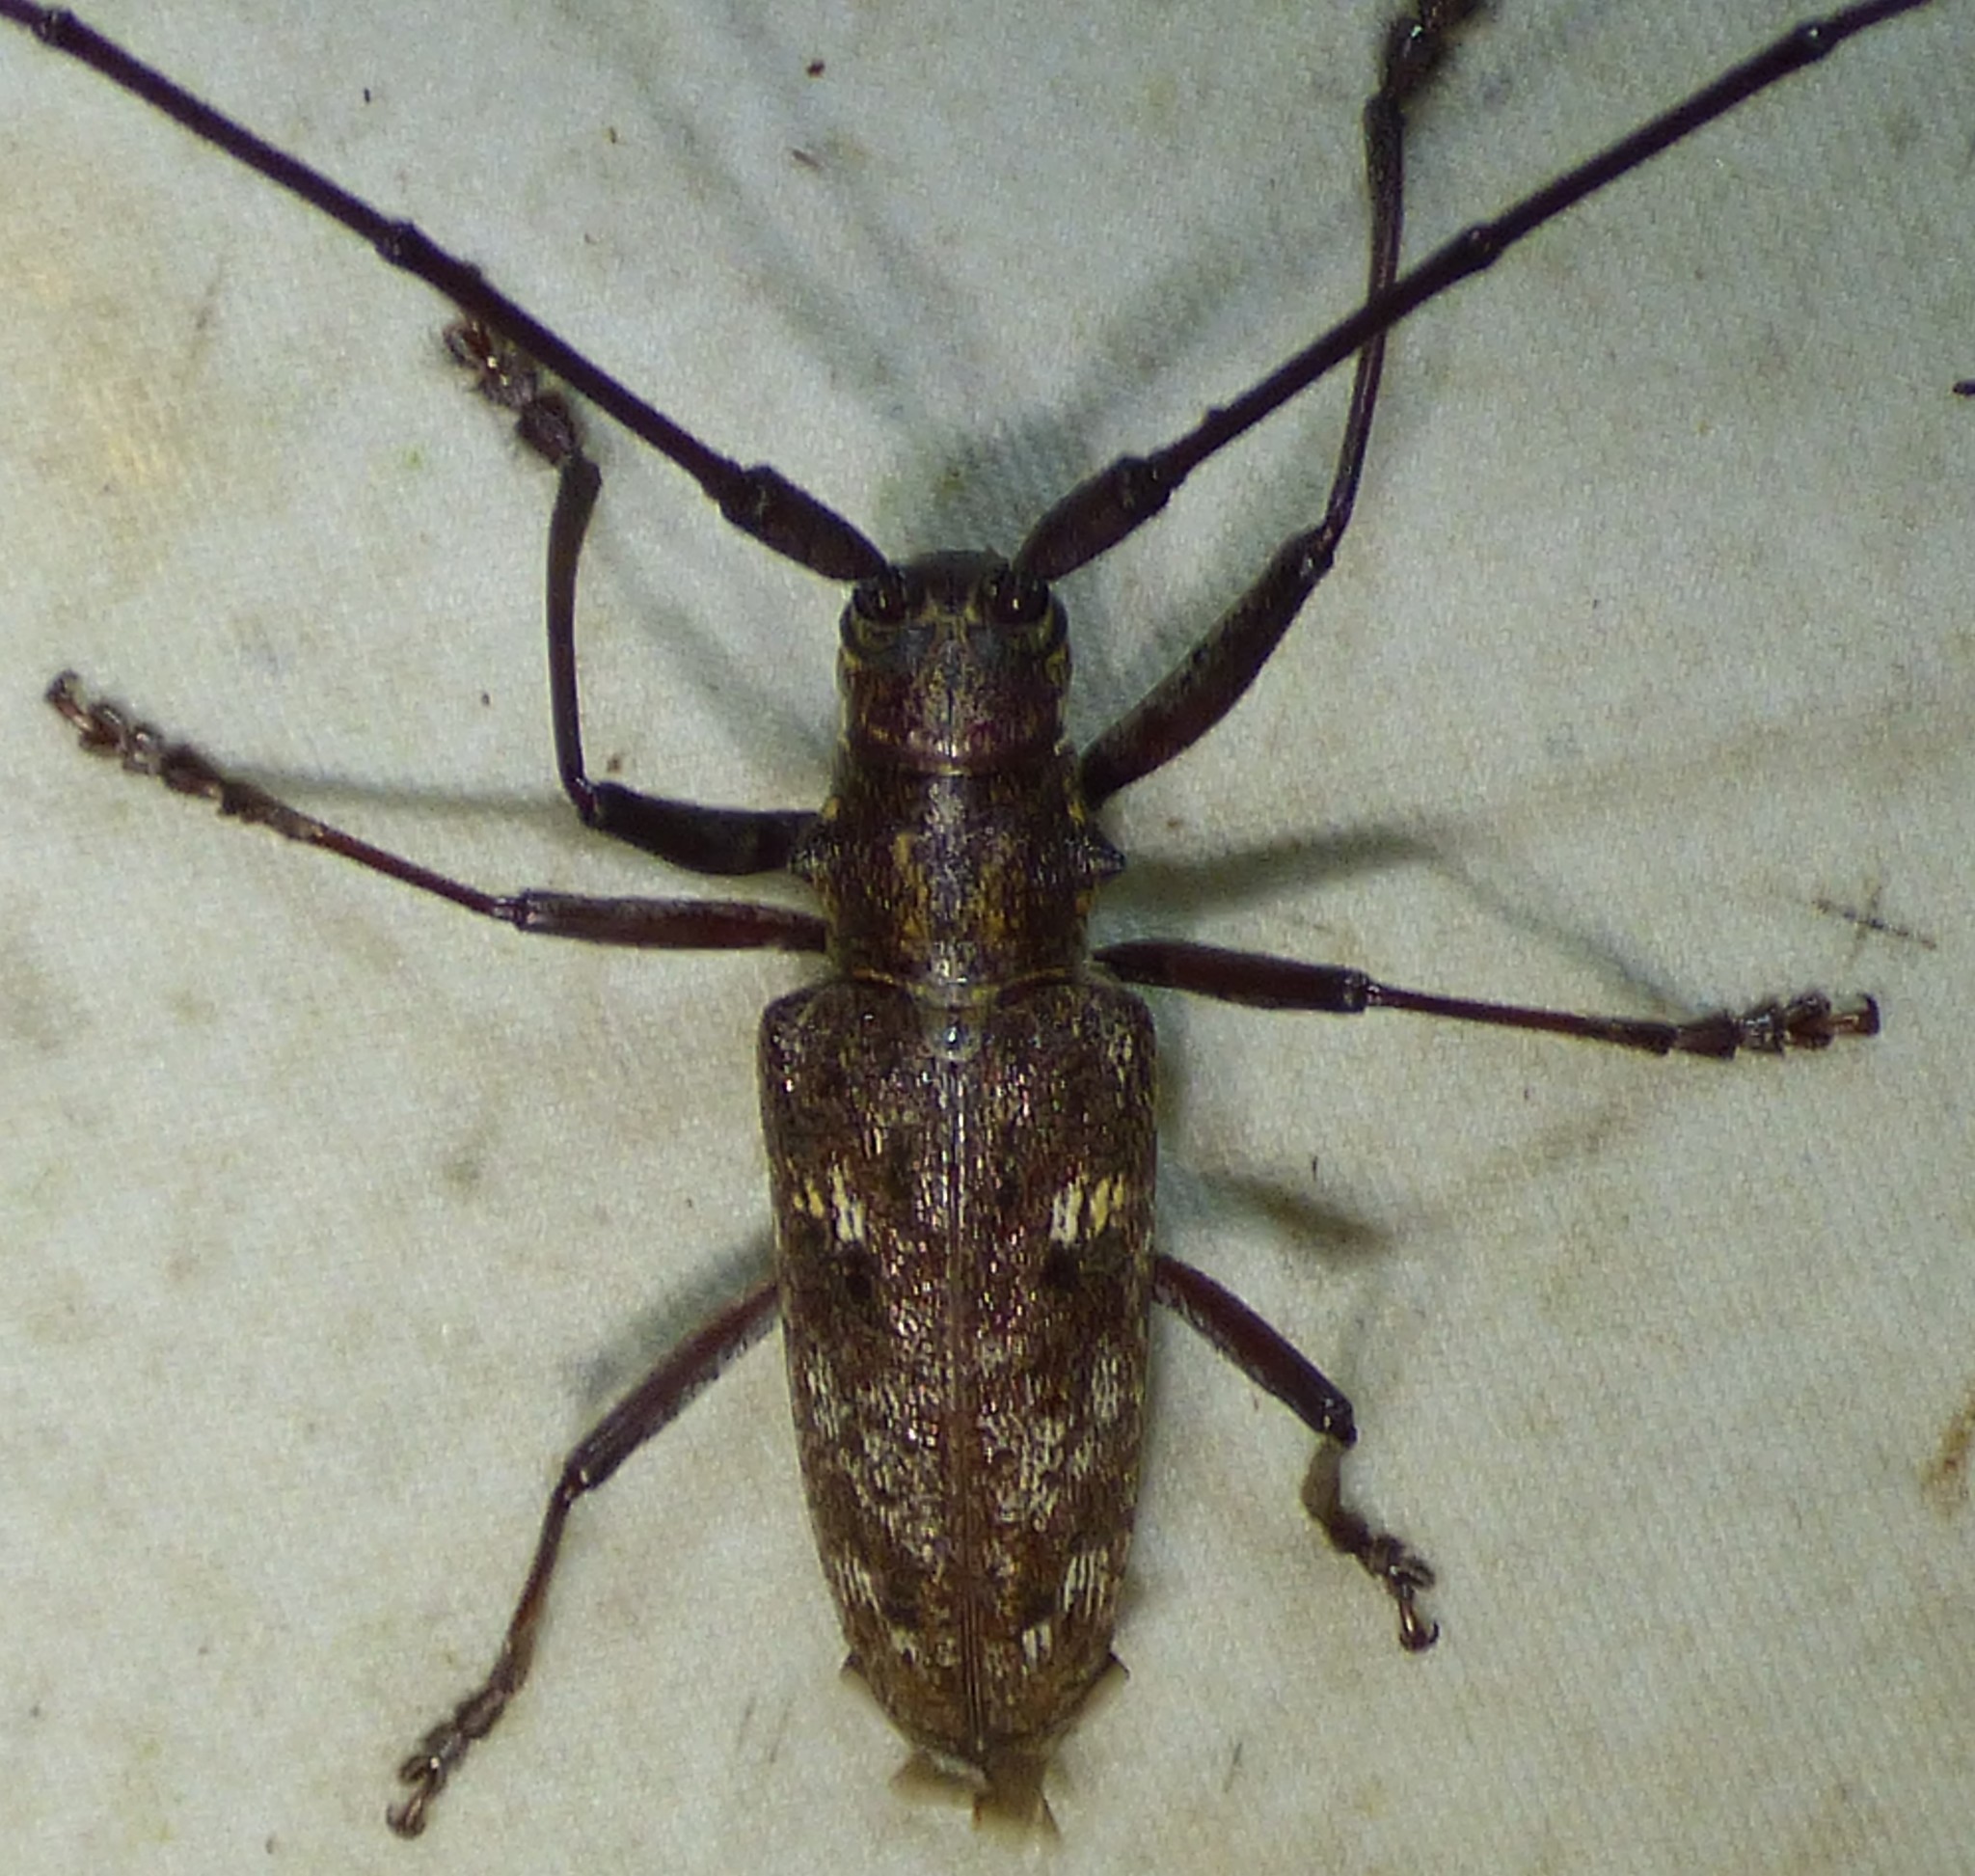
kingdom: Animalia
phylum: Arthropoda
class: Insecta
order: Coleoptera
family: Cerambycidae
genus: Monochamus
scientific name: Monochamus carolinensis
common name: Carolina pine sawyer
